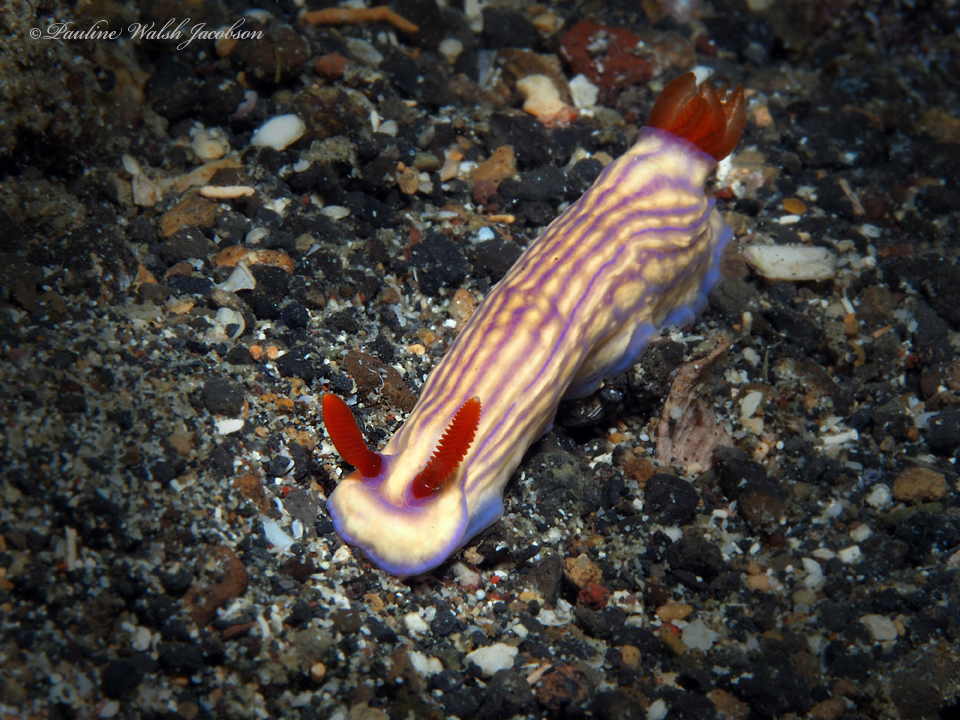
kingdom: Animalia
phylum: Mollusca
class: Gastropoda
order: Nudibranchia
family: Chromodorididae
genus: Hypselodoris
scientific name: Hypselodoris whitei
